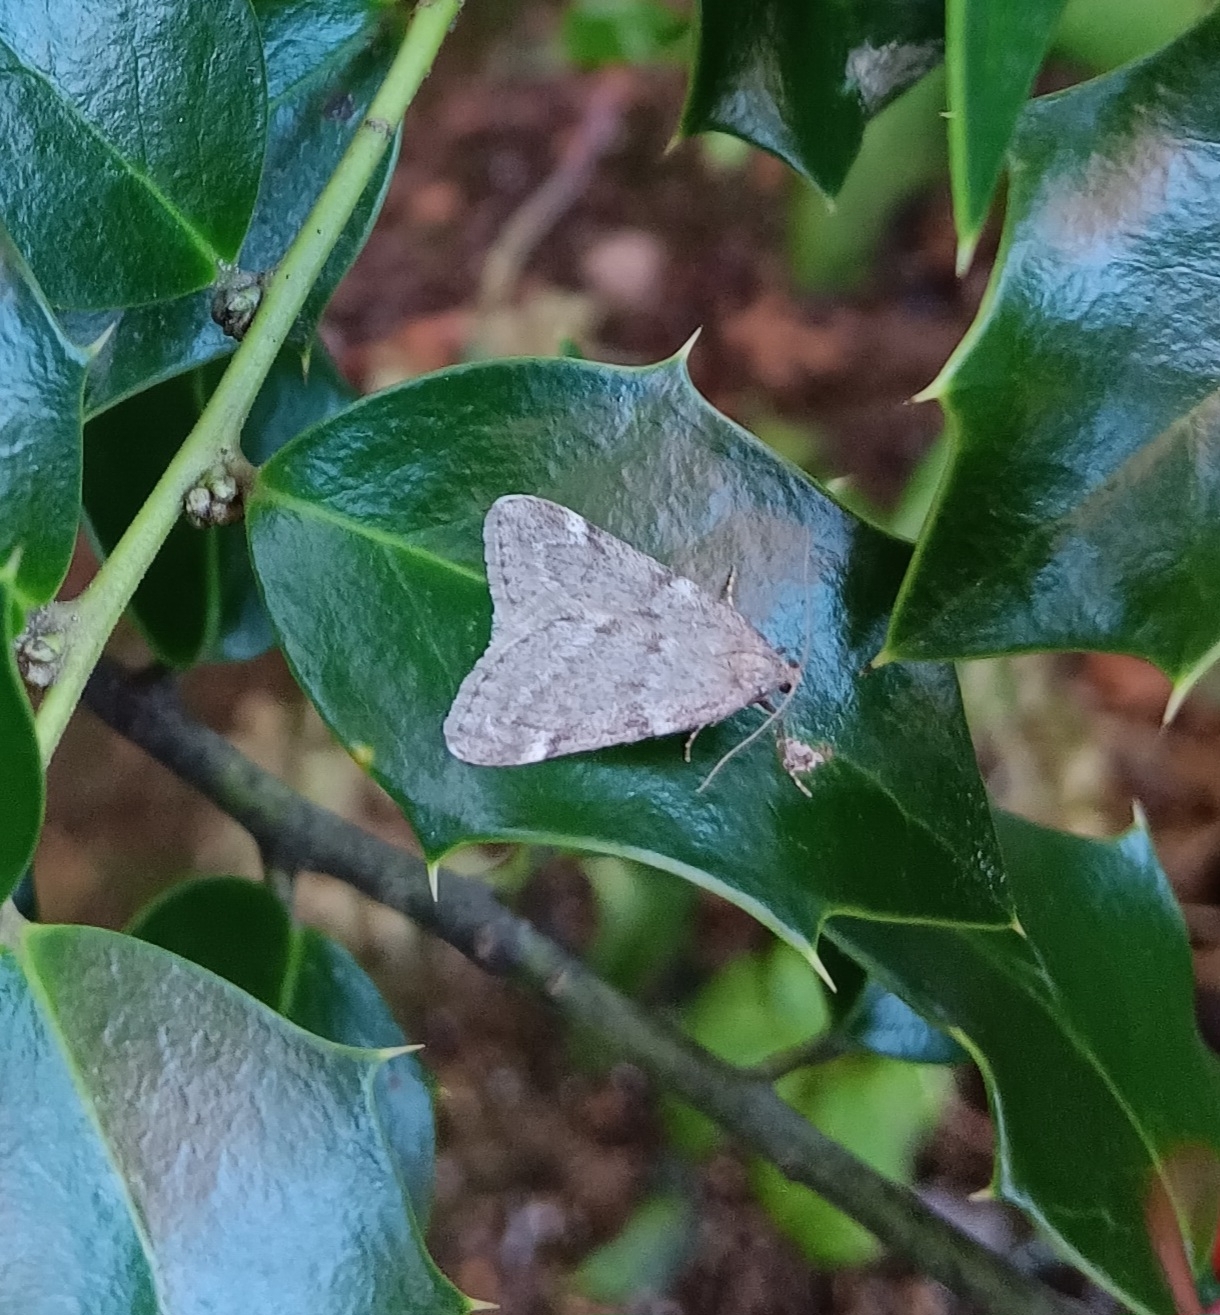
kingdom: Animalia
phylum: Arthropoda
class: Insecta
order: Lepidoptera
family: Geometridae
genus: Alsophila
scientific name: Alsophila pometaria
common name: Fall cankerworm
